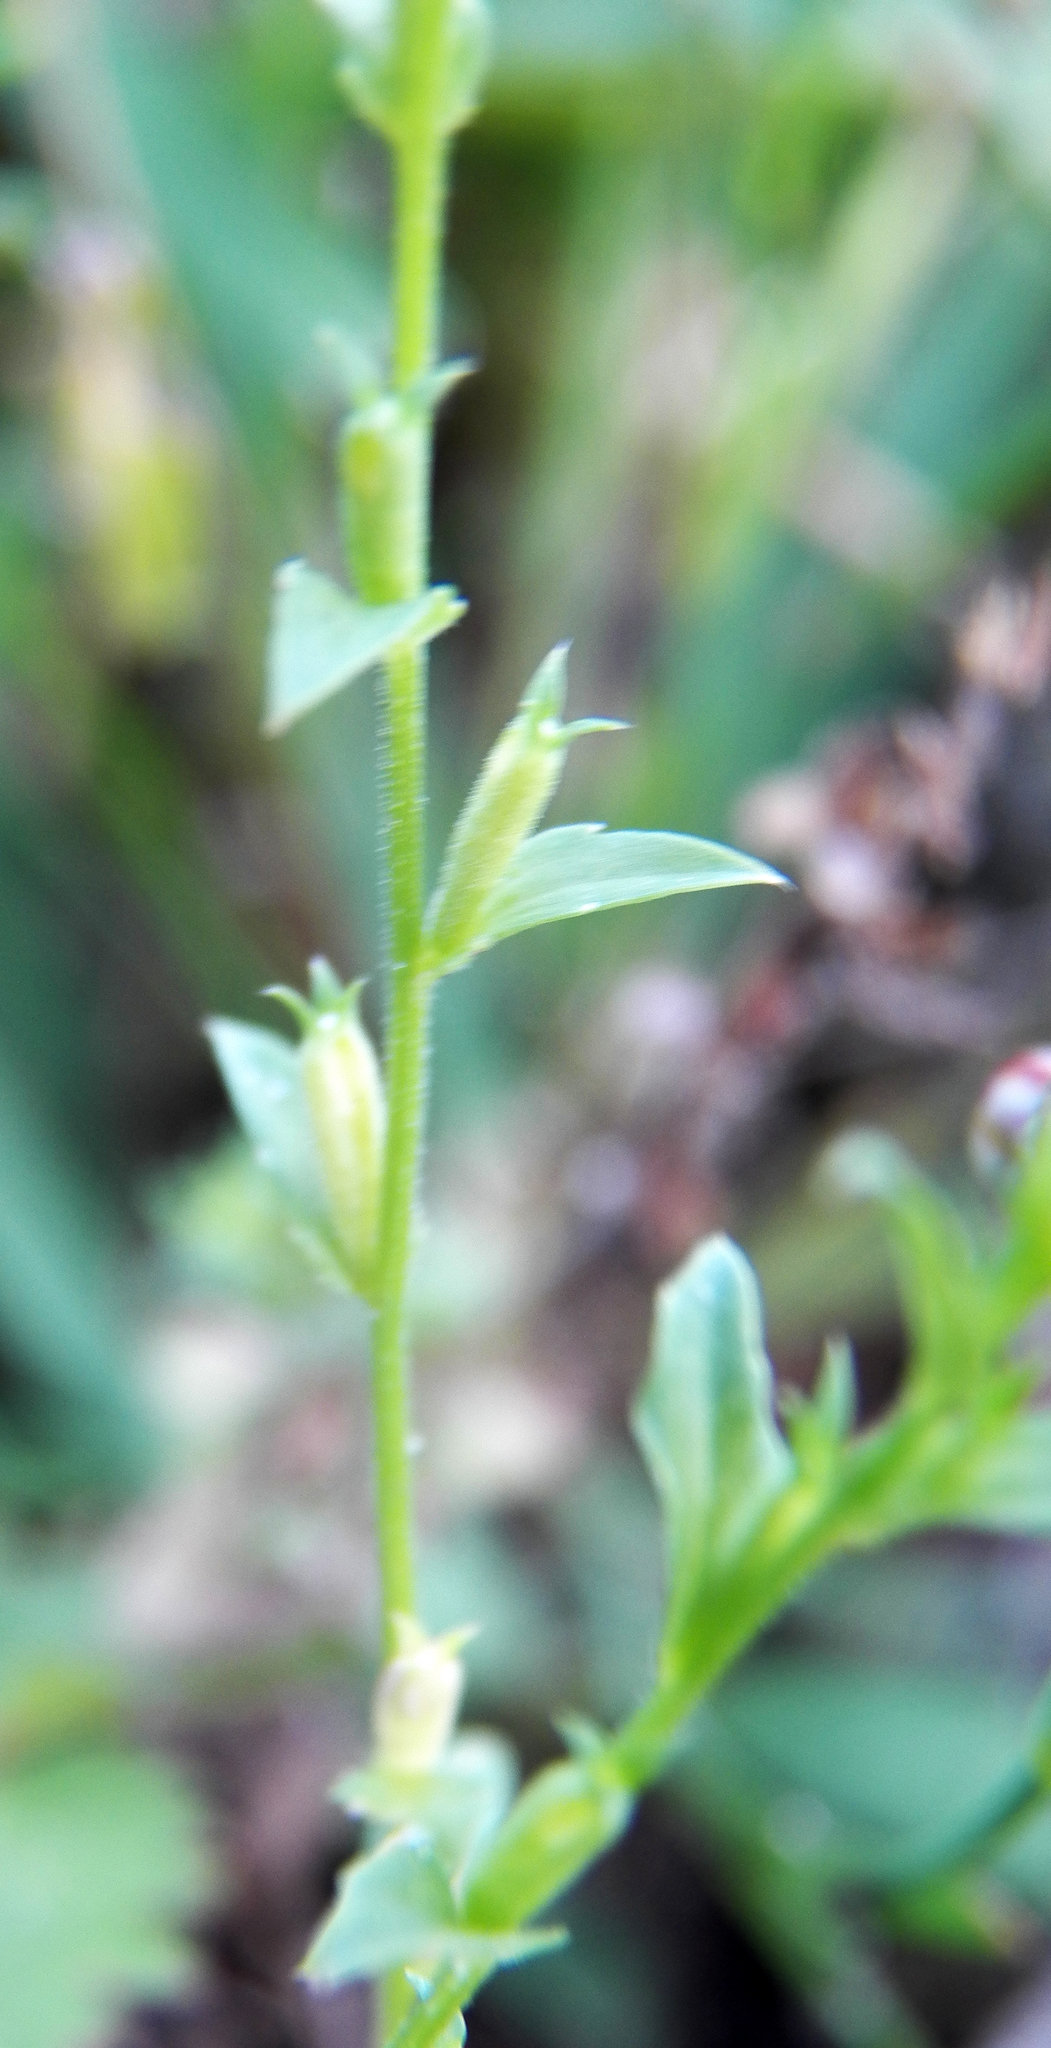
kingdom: Plantae
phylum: Tracheophyta
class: Magnoliopsida
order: Asterales
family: Campanulaceae
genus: Triodanis
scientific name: Triodanis biflora
